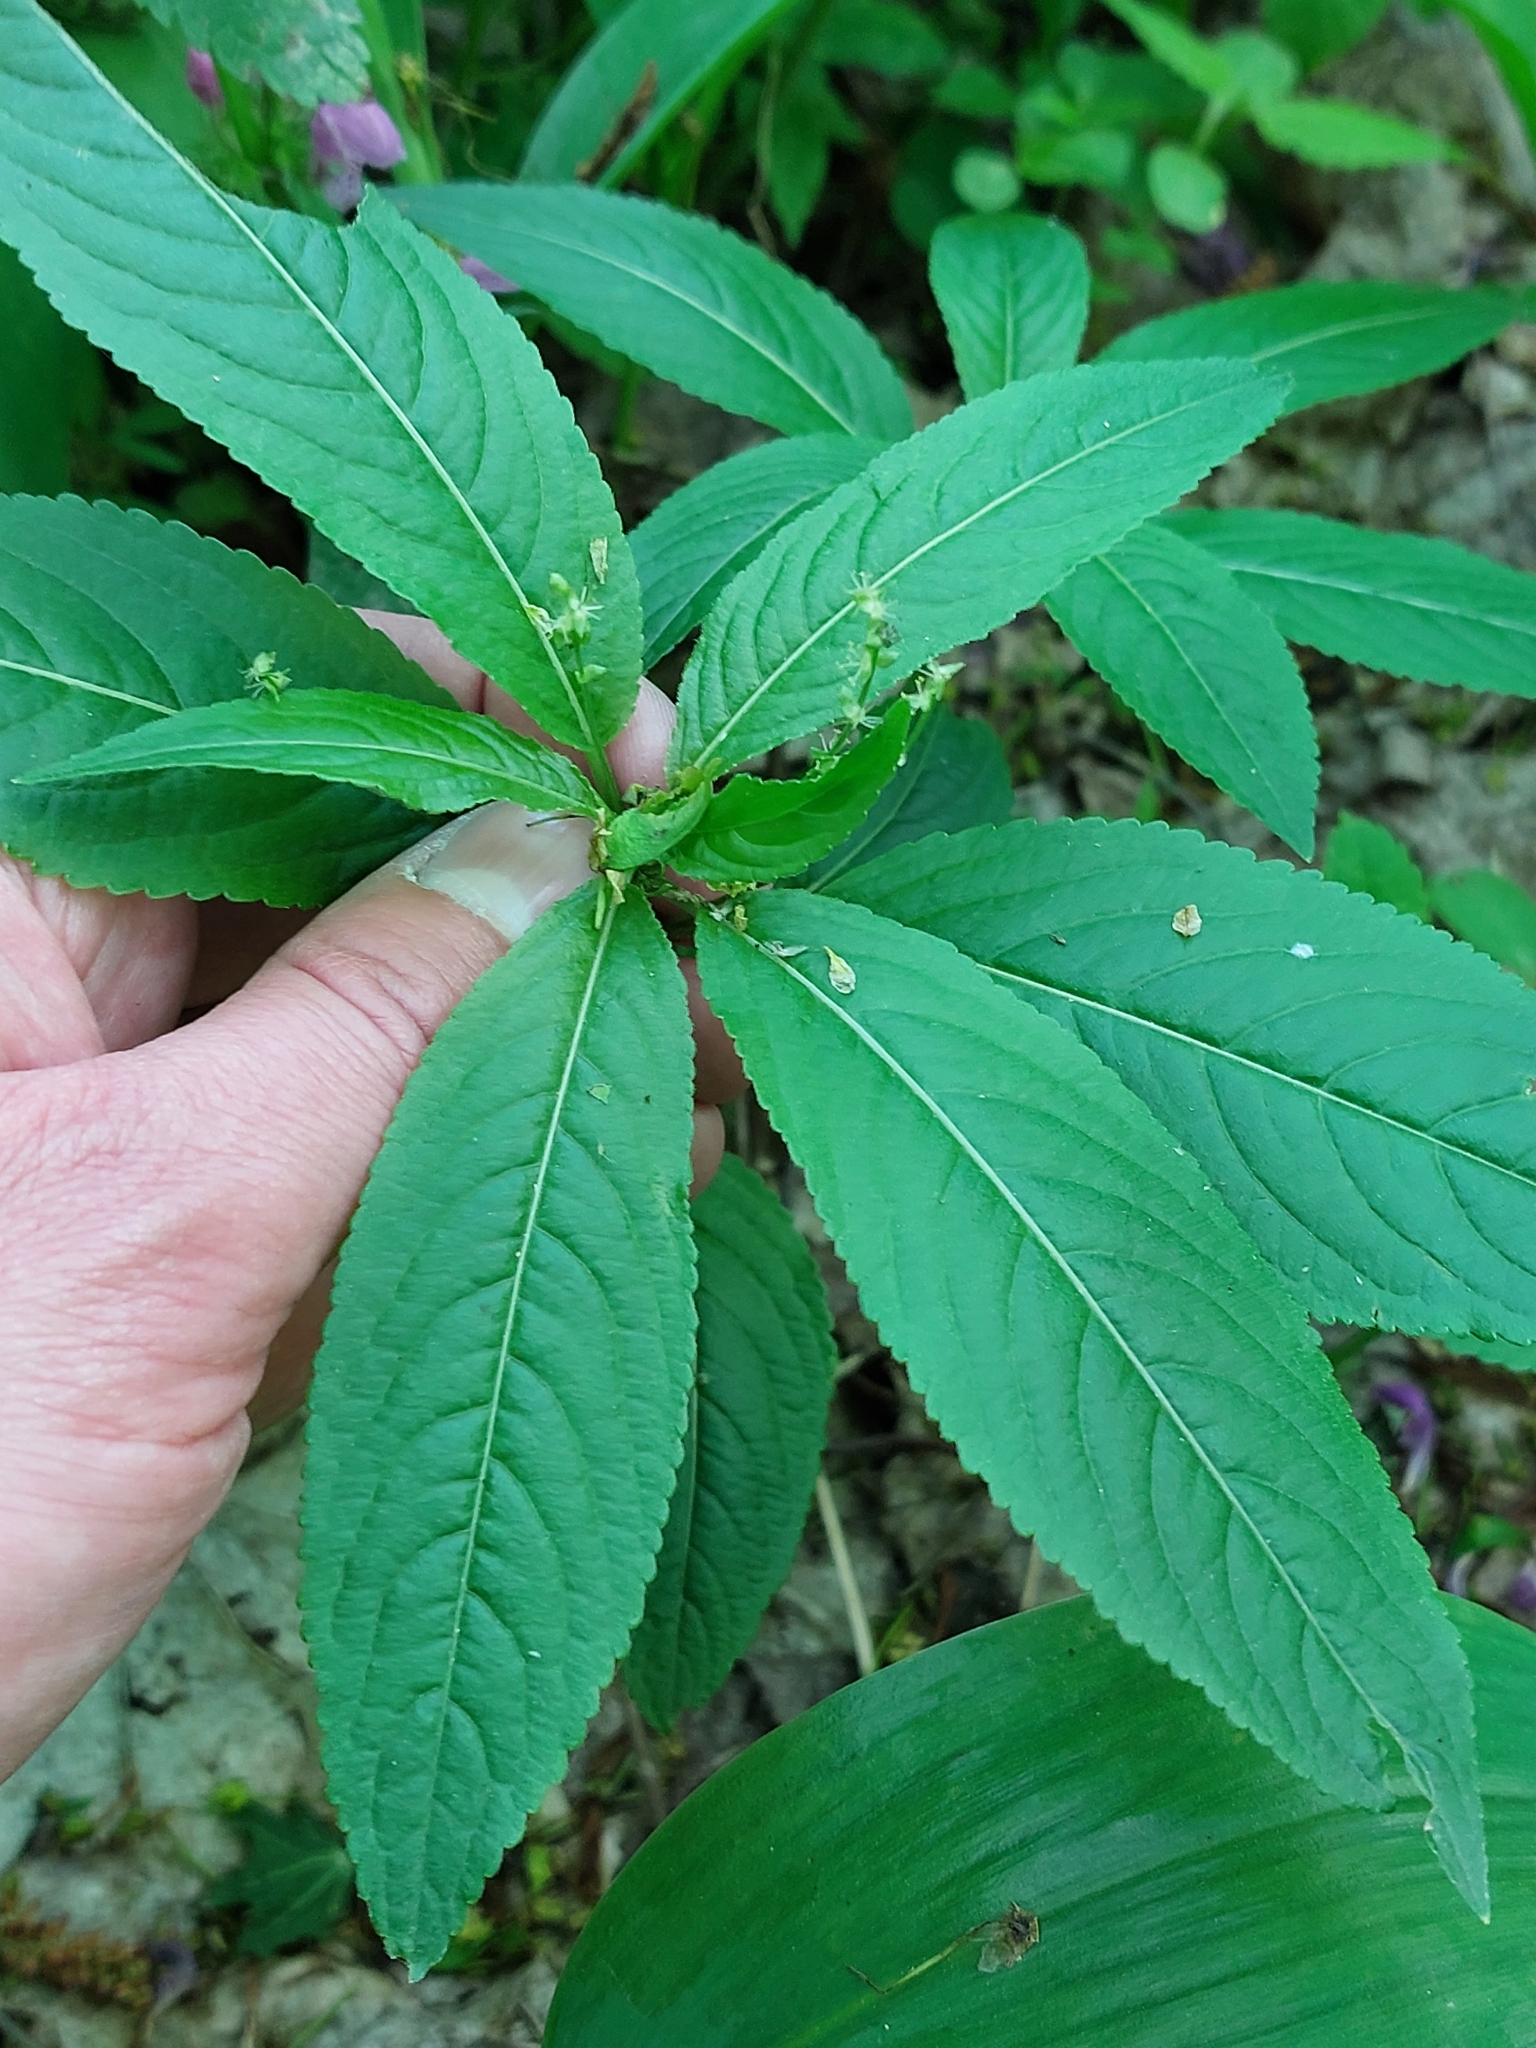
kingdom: Plantae
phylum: Tracheophyta
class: Magnoliopsida
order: Malpighiales
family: Euphorbiaceae
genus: Mercurialis
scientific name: Mercurialis perennis
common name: Dog mercury
